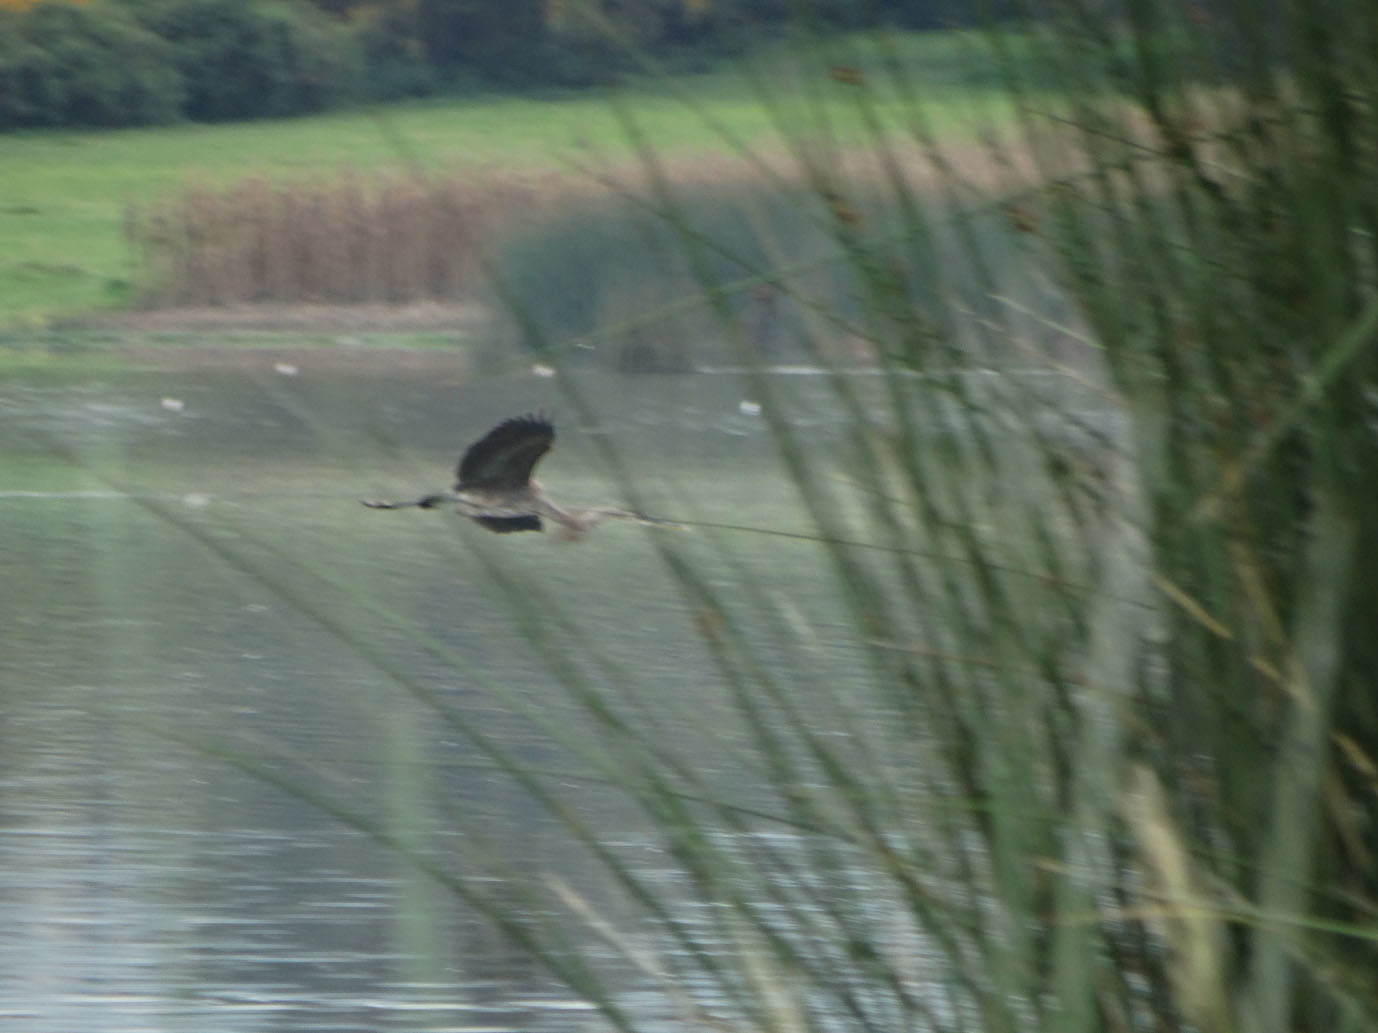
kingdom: Animalia
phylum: Chordata
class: Aves
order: Pelecaniformes
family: Ardeidae
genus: Ardea
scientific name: Ardea herodias
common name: Great blue heron
